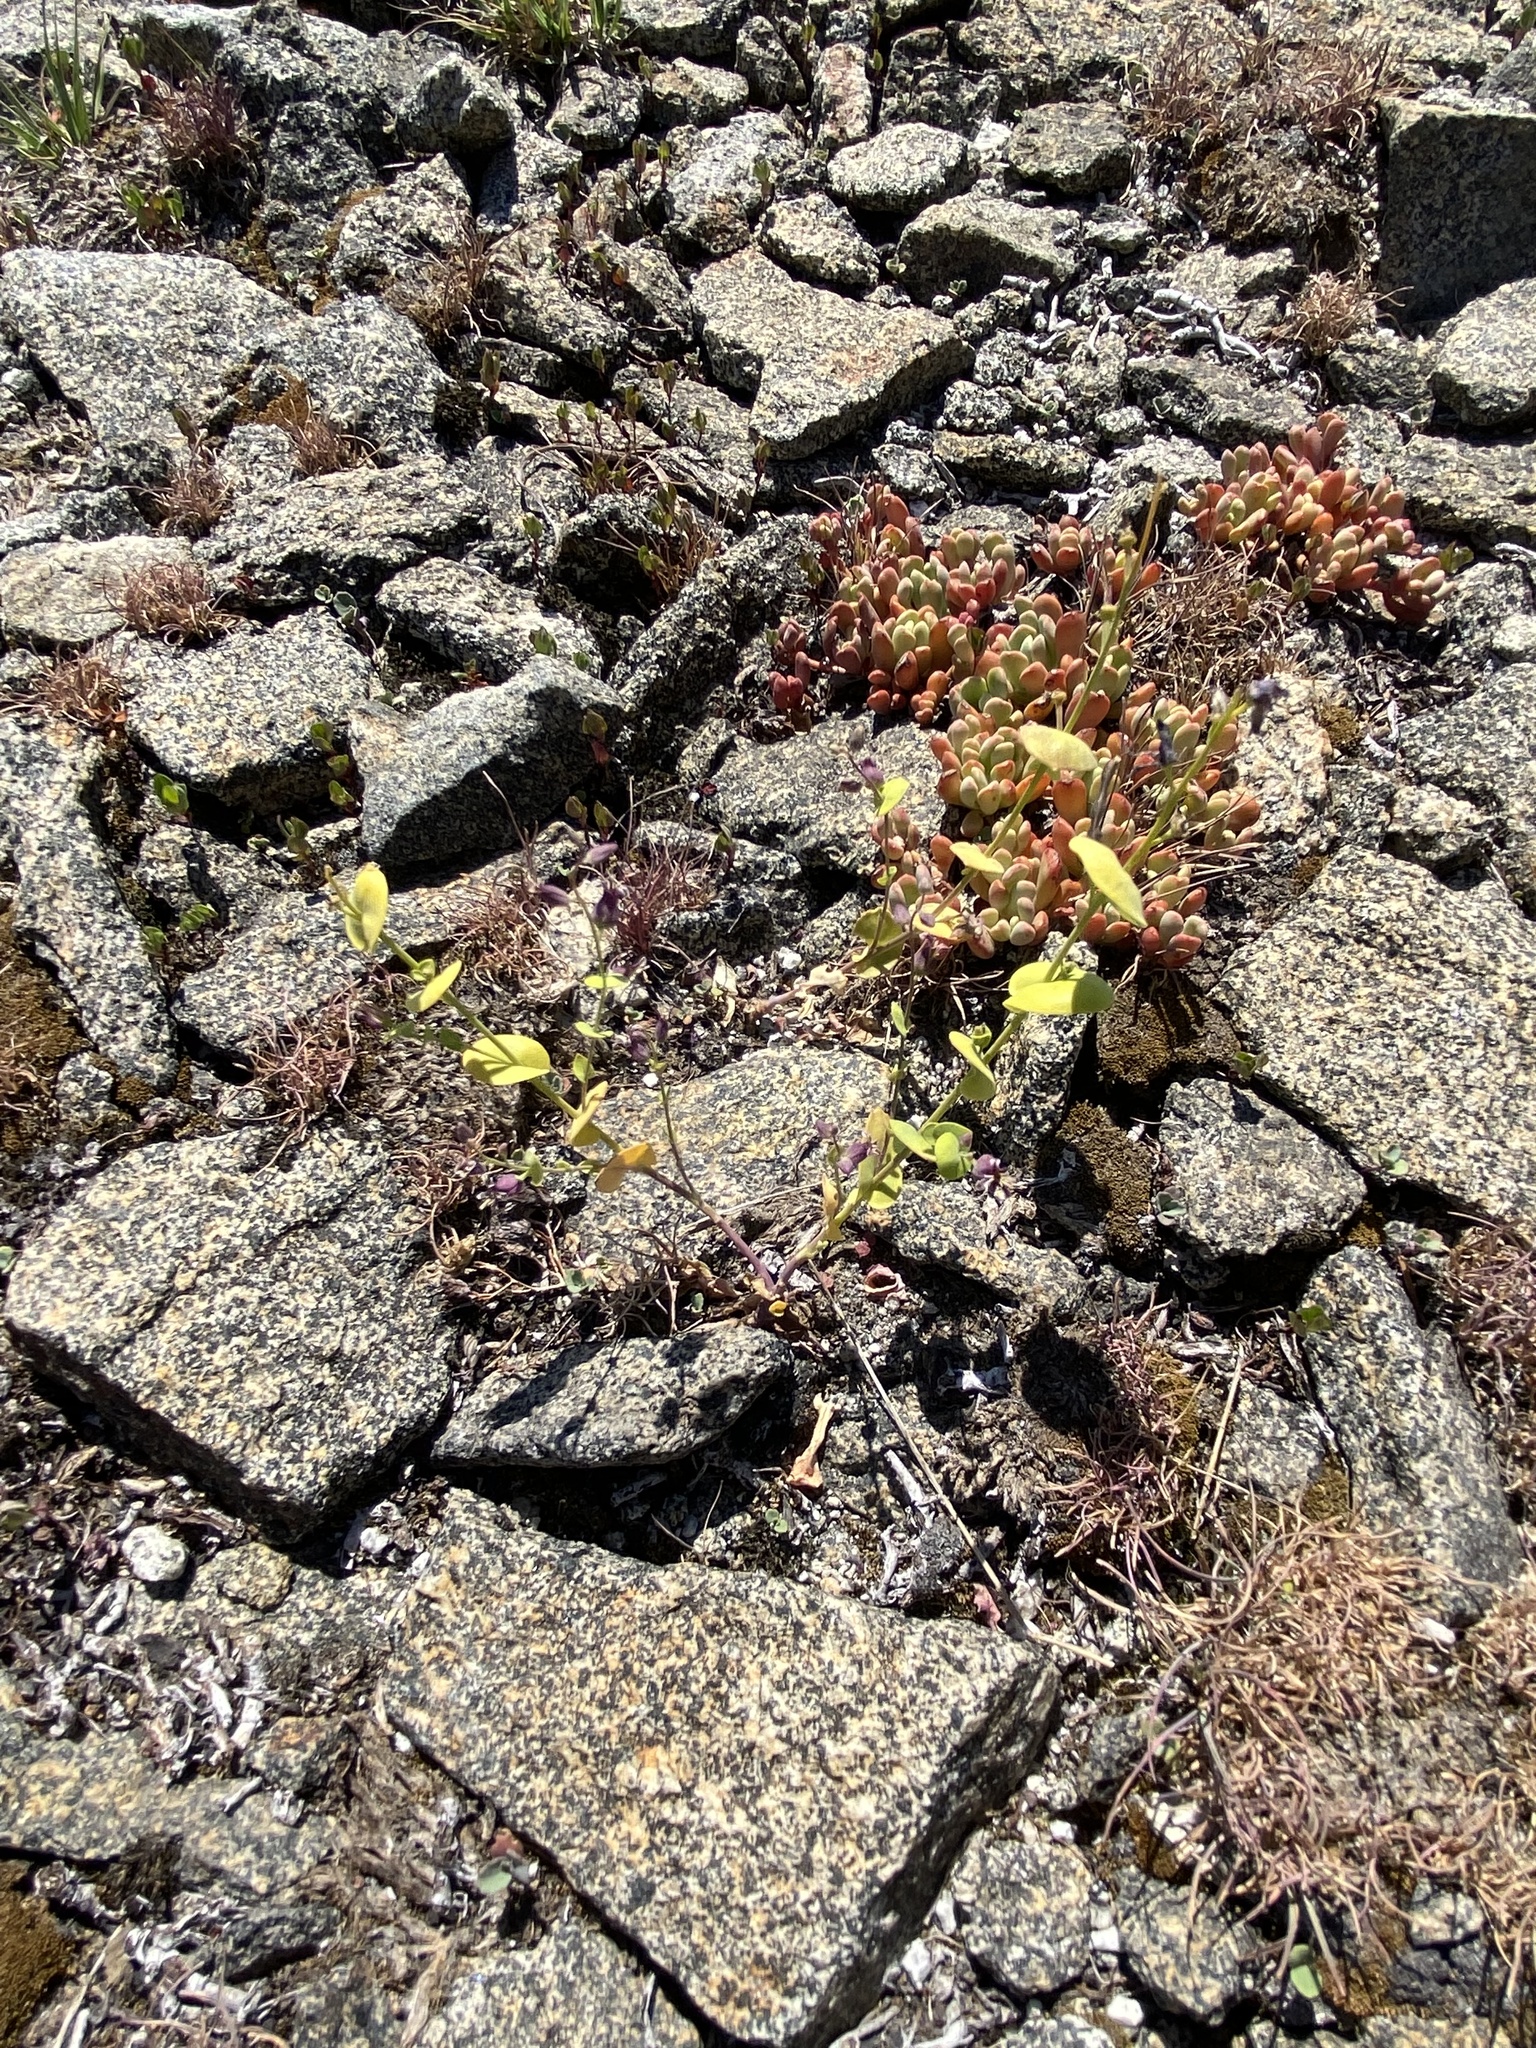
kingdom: Plantae
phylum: Tracheophyta
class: Magnoliopsida
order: Brassicales
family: Brassicaceae
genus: Streptanthus
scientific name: Streptanthus tortuosus
